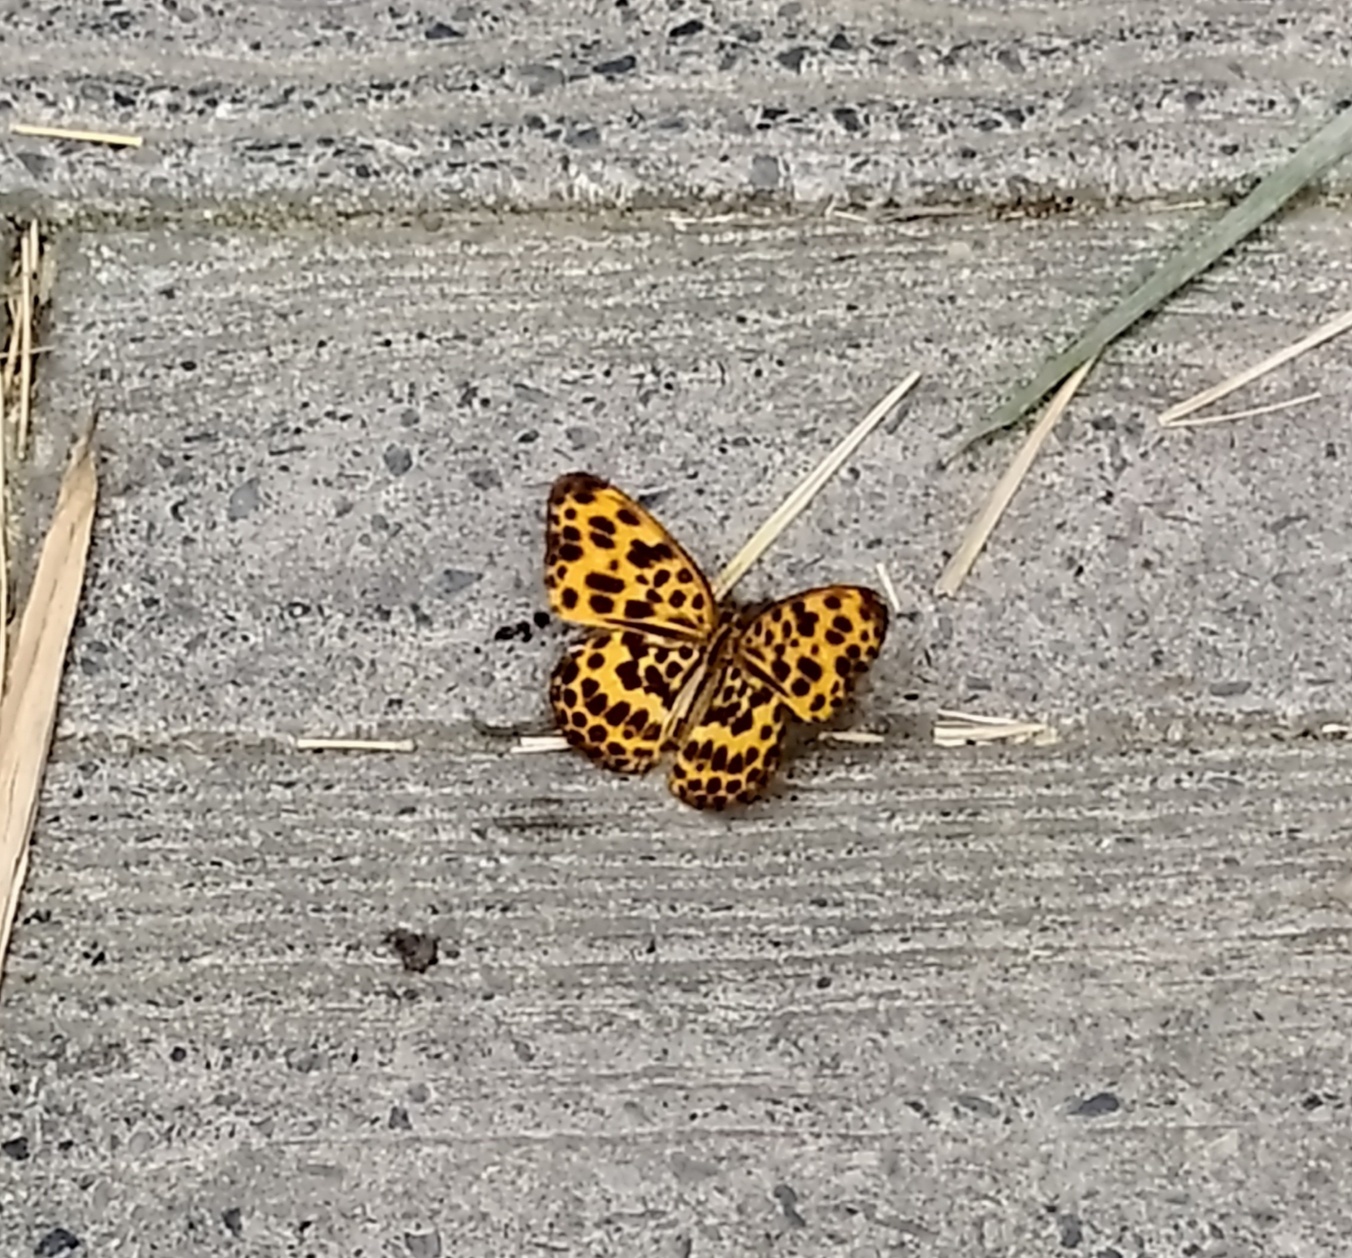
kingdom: Animalia
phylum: Arthropoda
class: Insecta
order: Lepidoptera
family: Nymphalidae
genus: Timelaea
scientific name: Timelaea albescens
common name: Beautiful leopard
